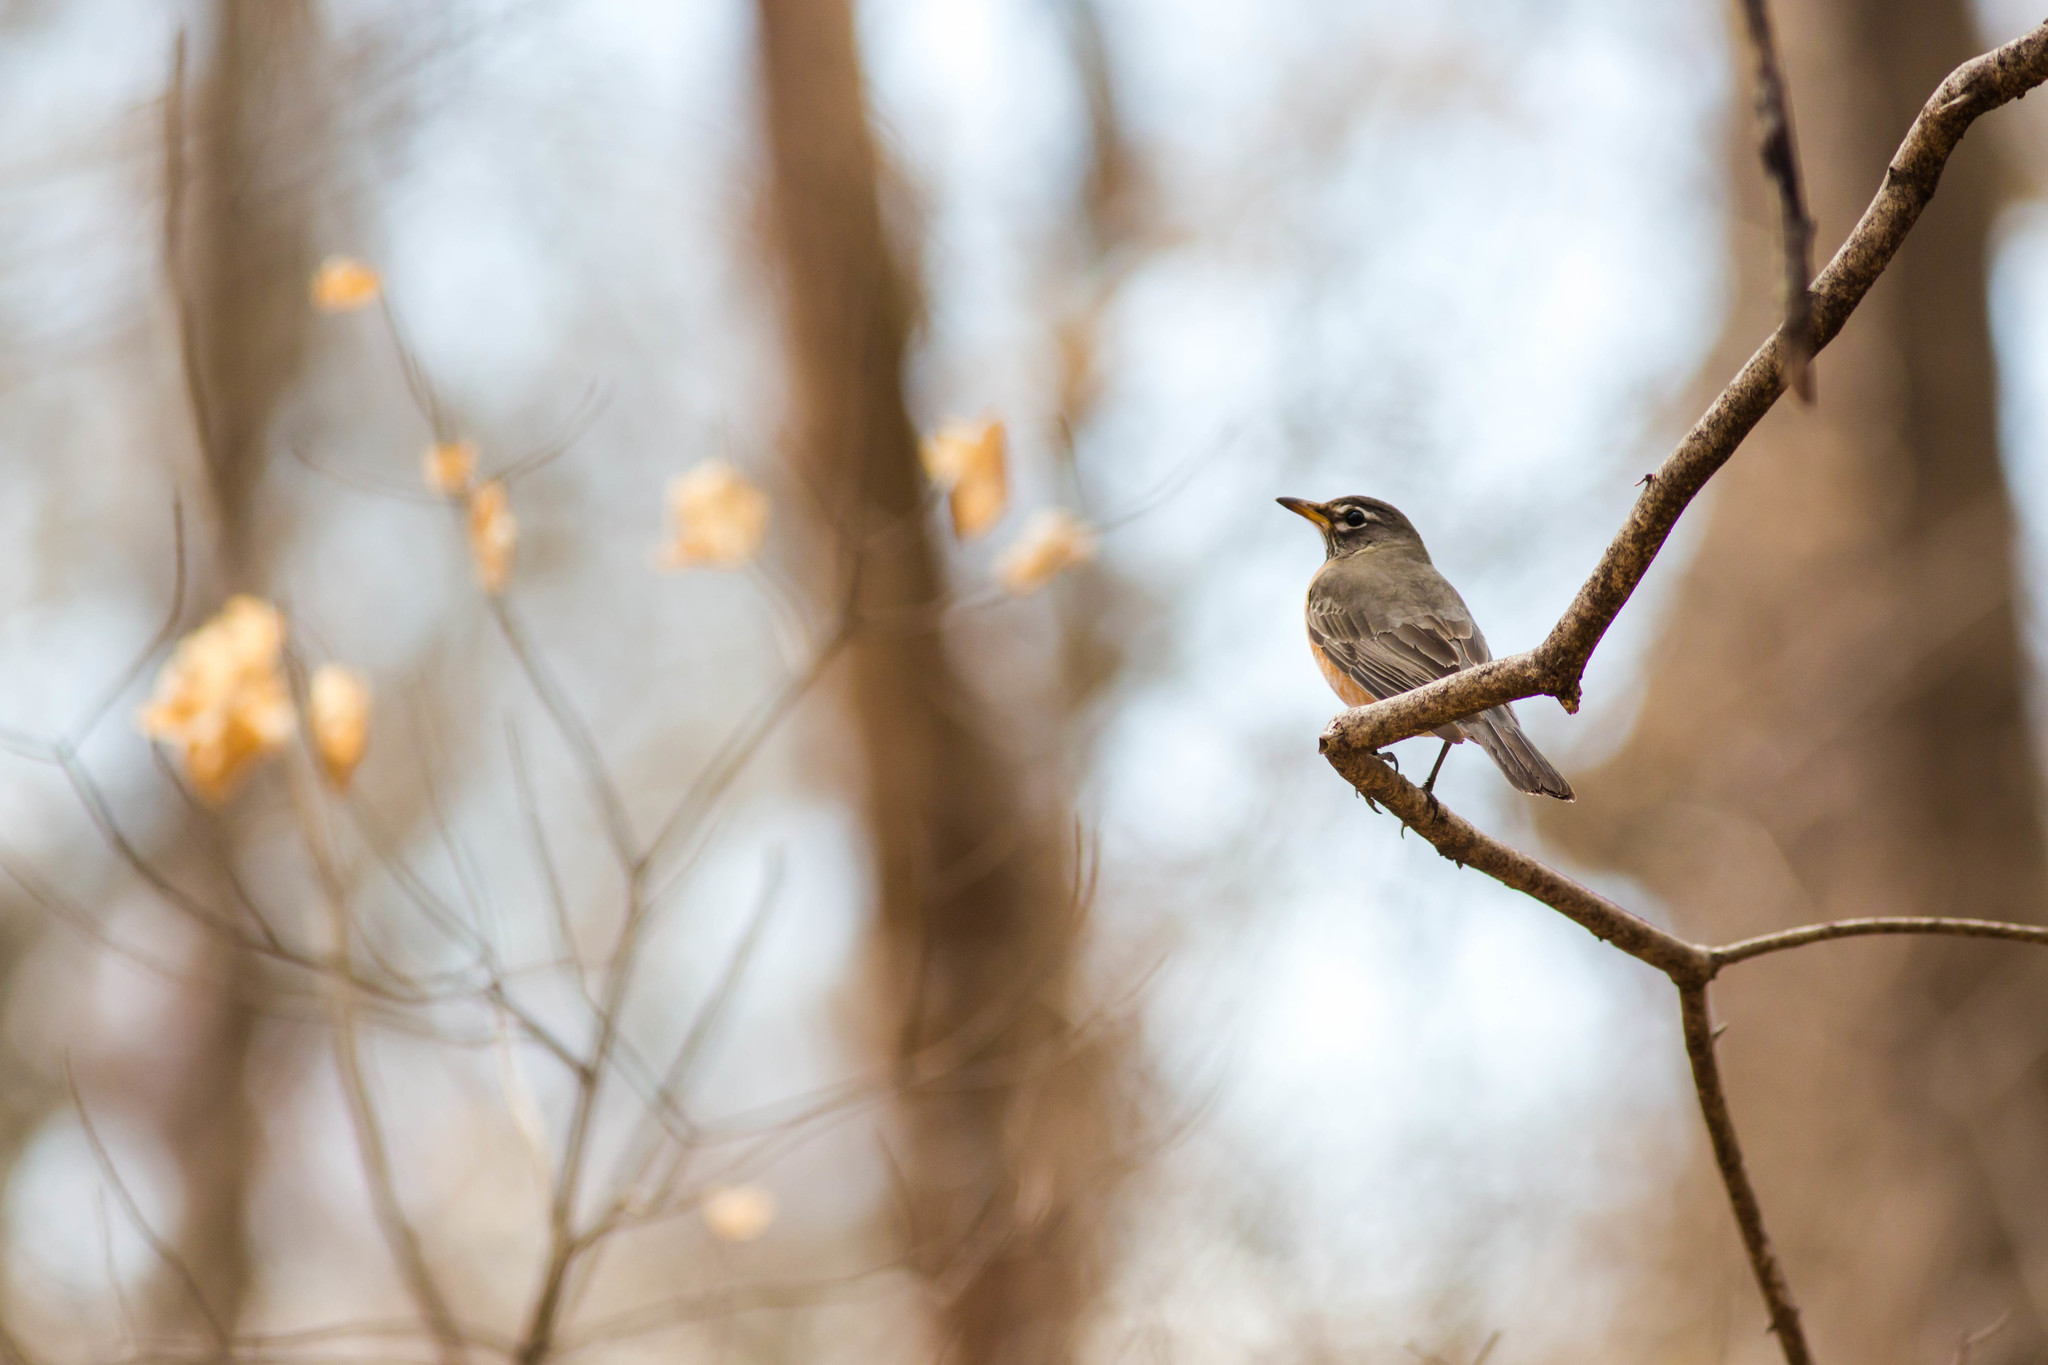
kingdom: Animalia
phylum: Chordata
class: Aves
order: Passeriformes
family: Turdidae
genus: Turdus
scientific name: Turdus migratorius
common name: American robin
